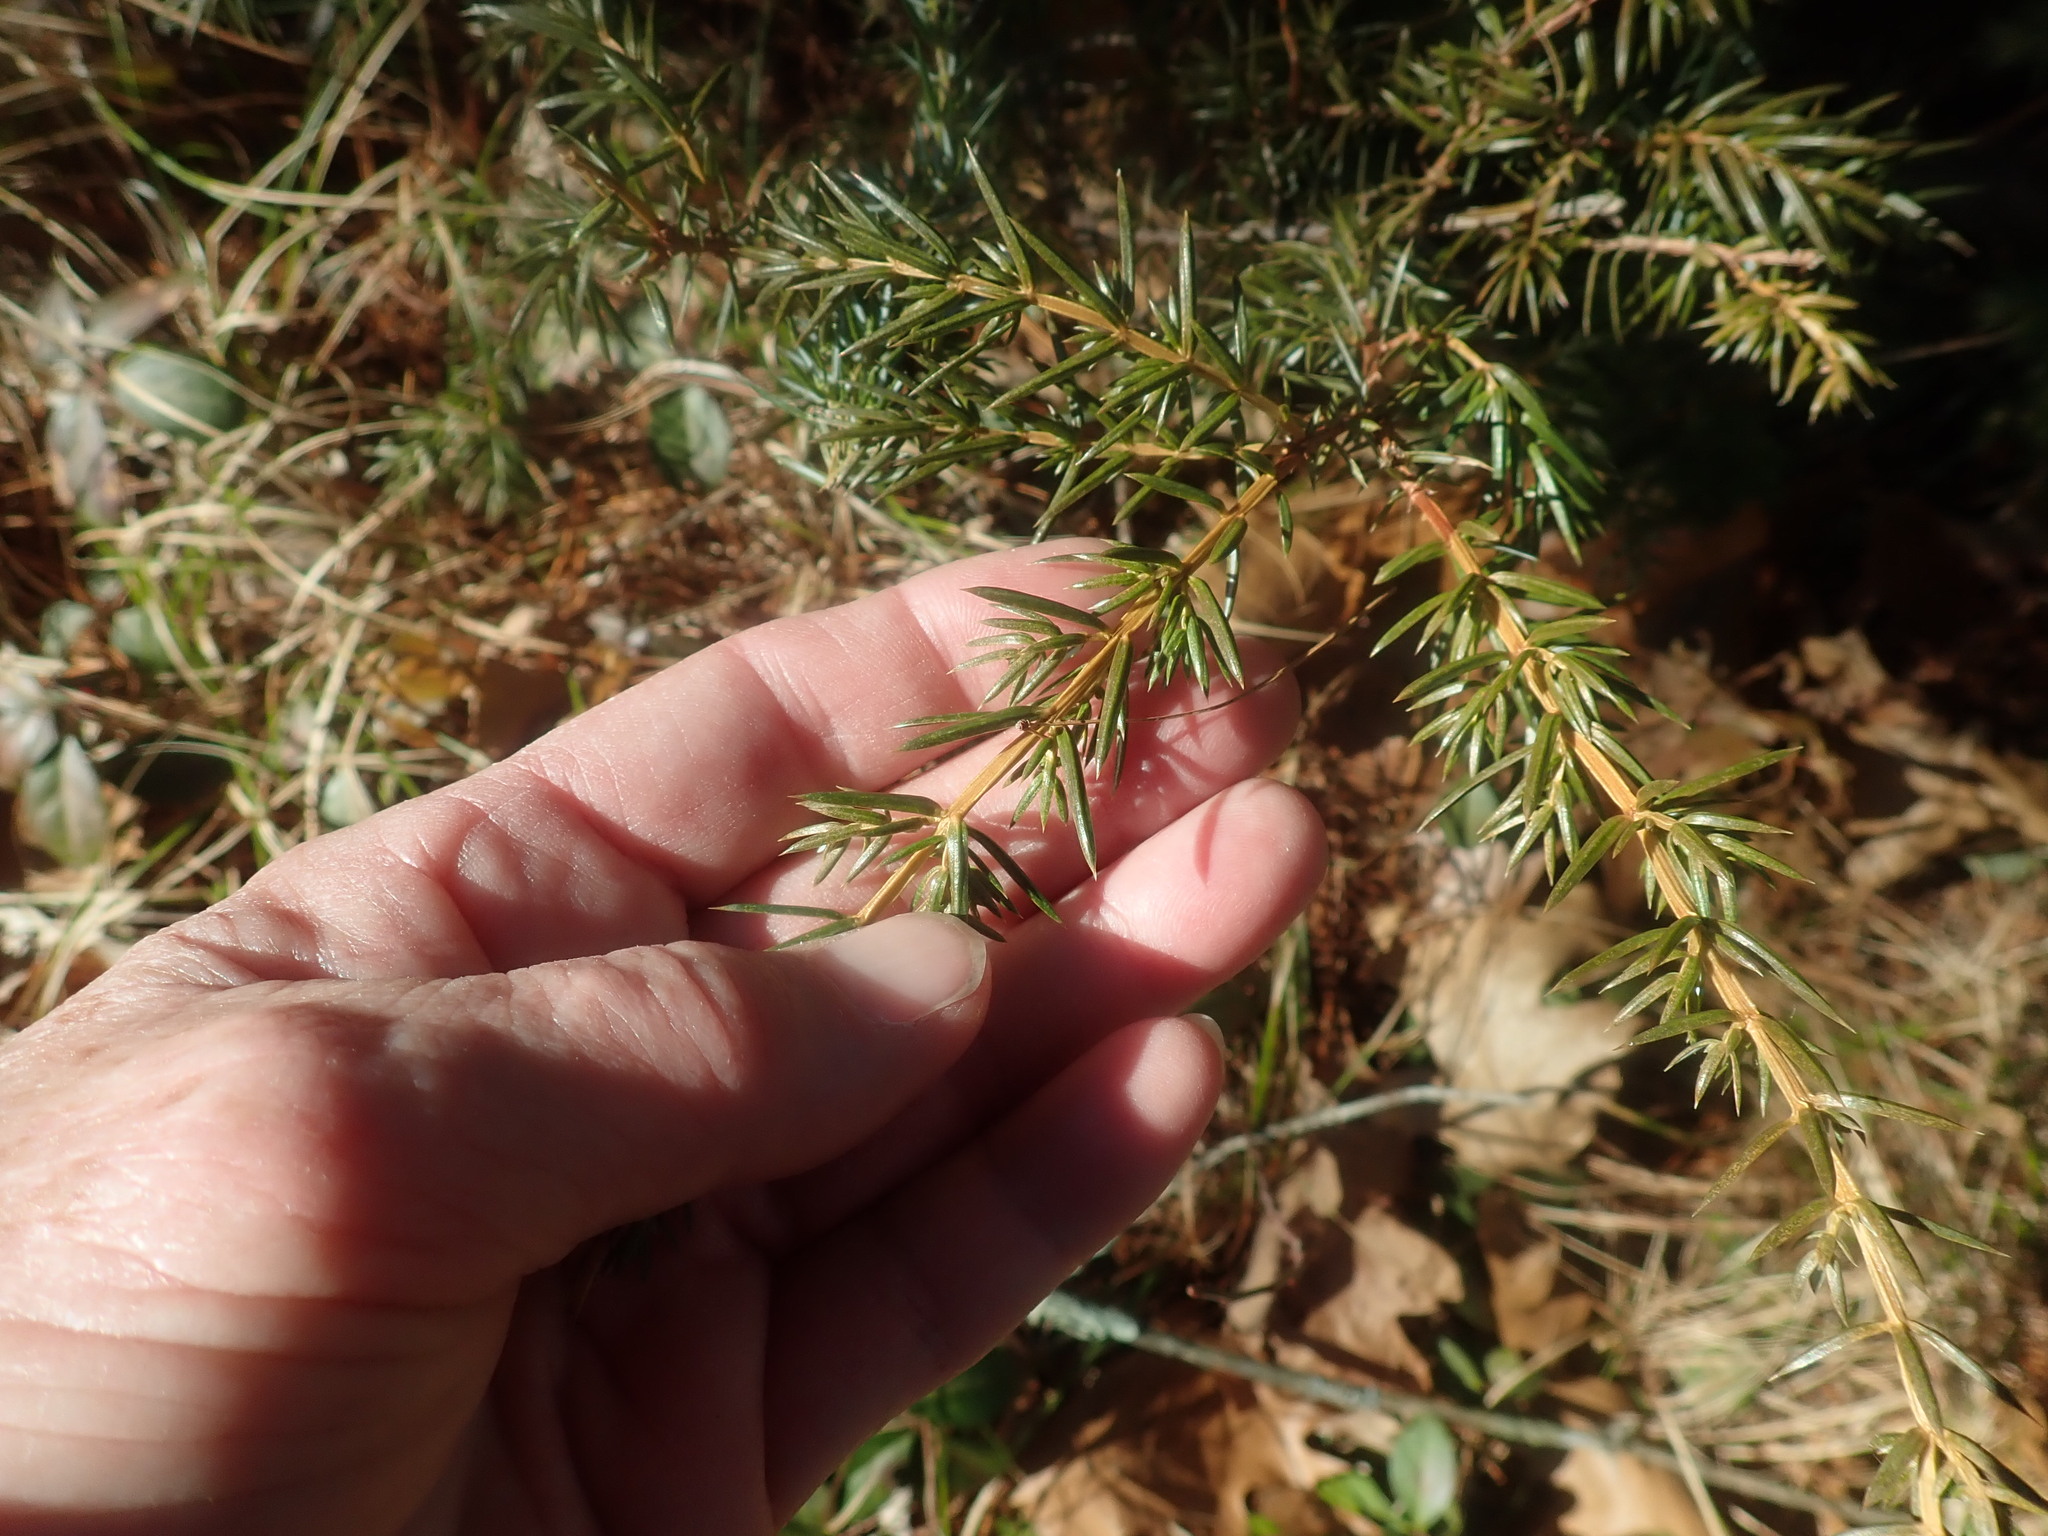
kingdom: Plantae
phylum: Tracheophyta
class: Pinopsida
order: Pinales
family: Cupressaceae
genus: Juniperus
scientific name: Juniperus communis
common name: Common juniper
